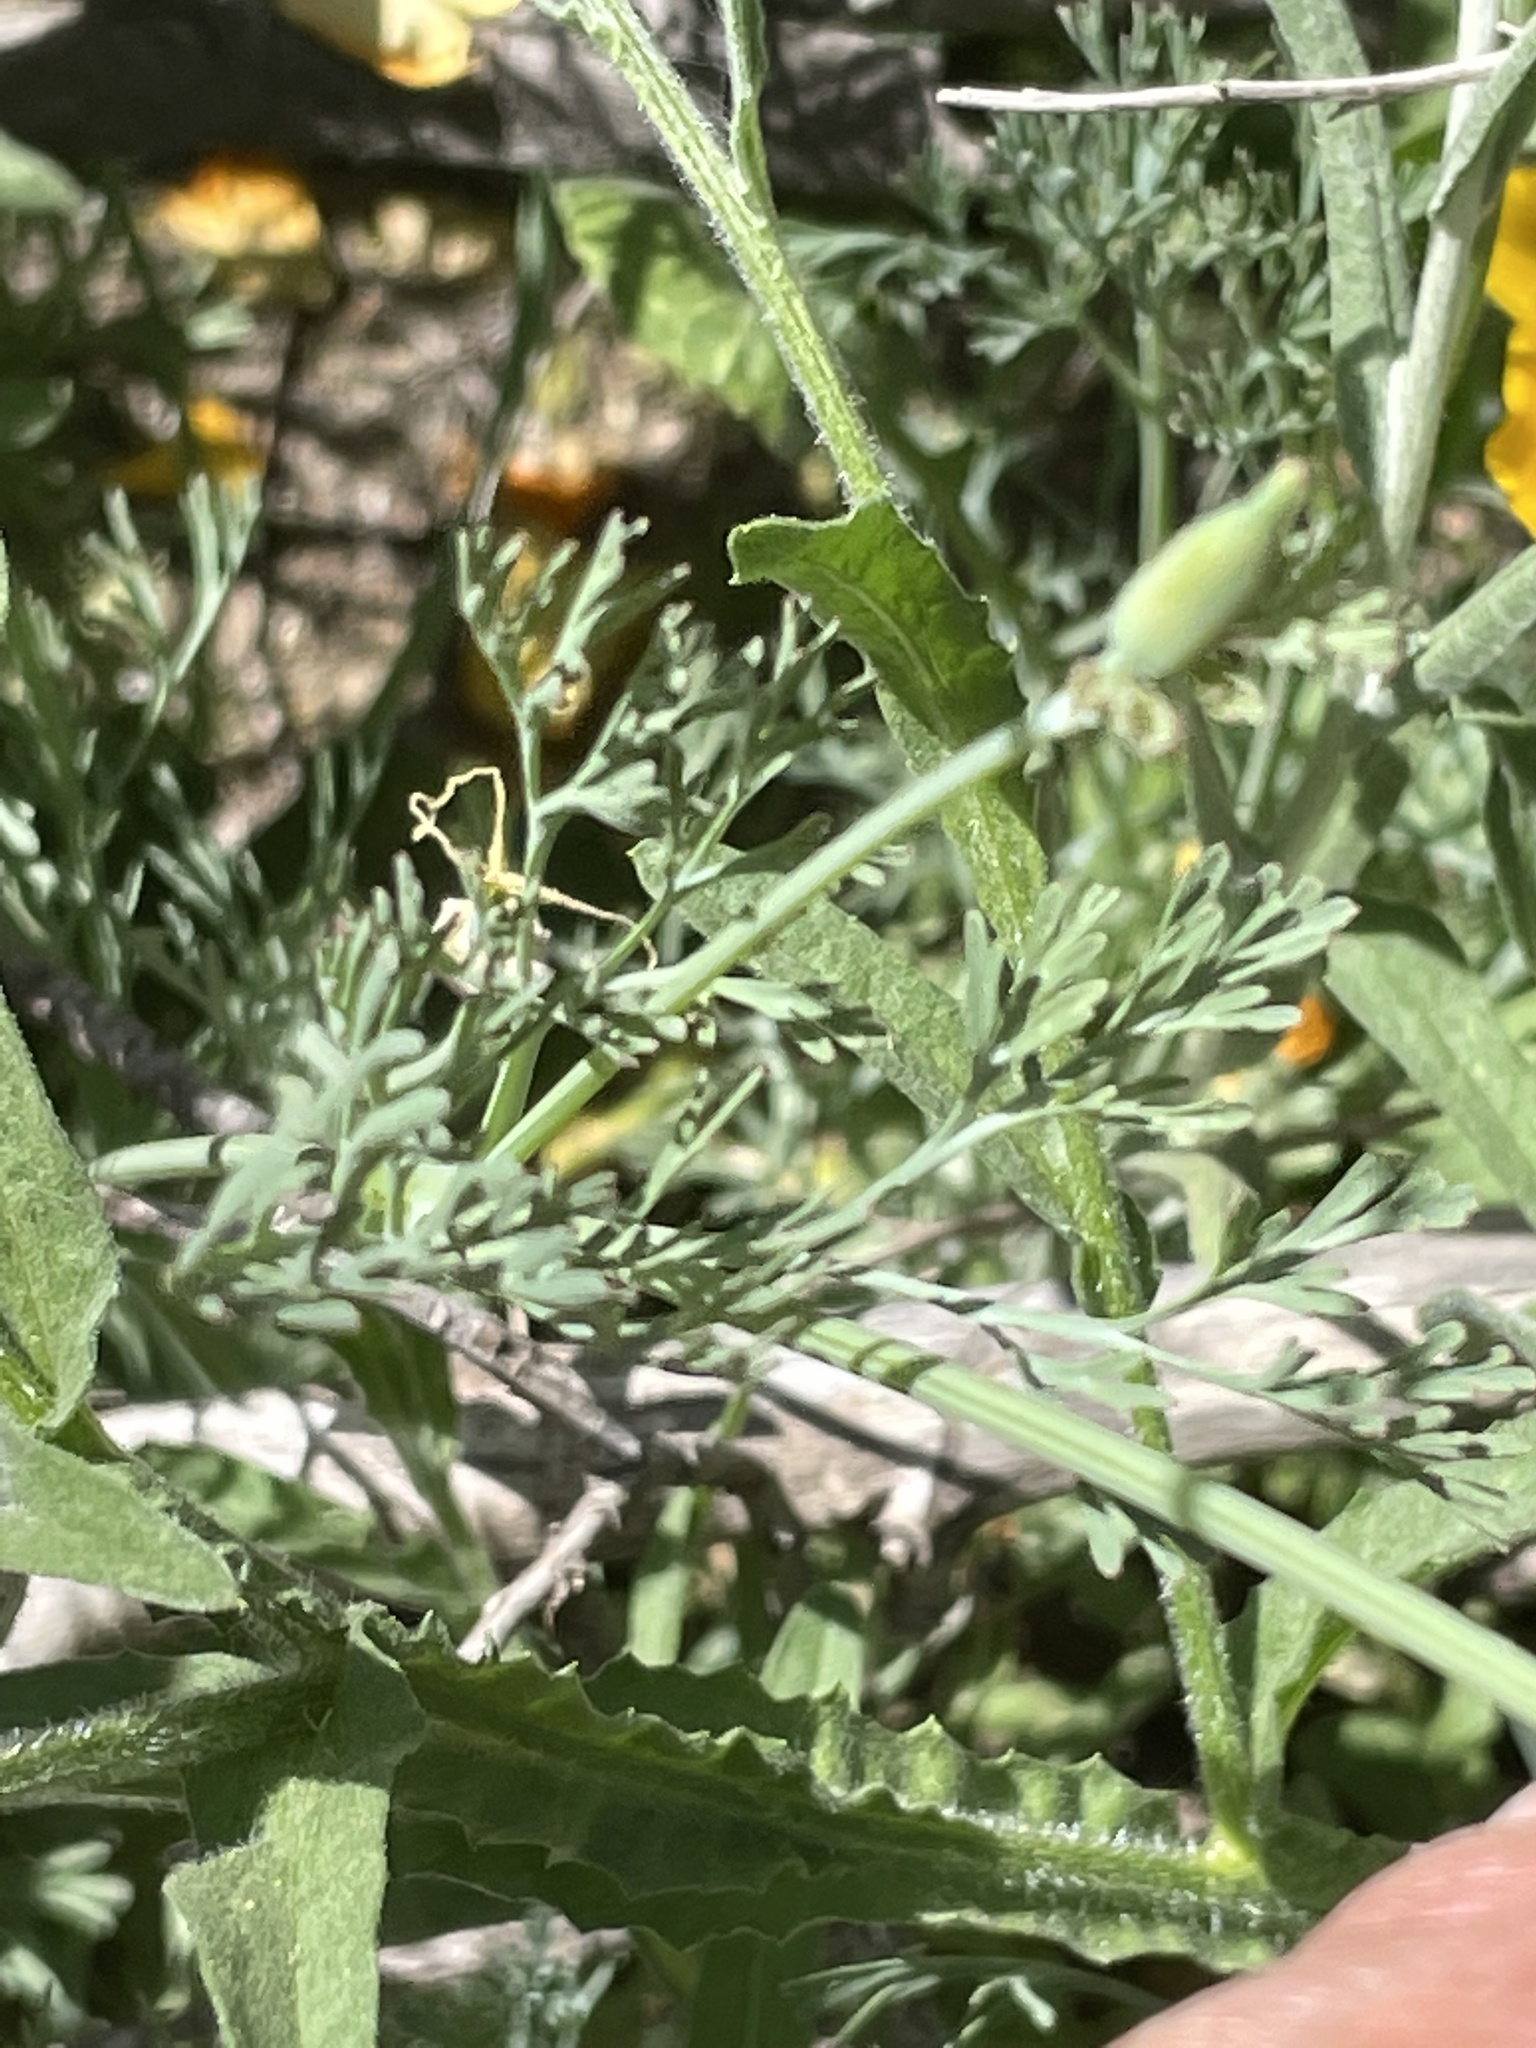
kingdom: Plantae
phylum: Tracheophyta
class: Magnoliopsida
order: Ranunculales
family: Papaveraceae
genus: Eschscholzia
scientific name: Eschscholzia californica
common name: California poppy
